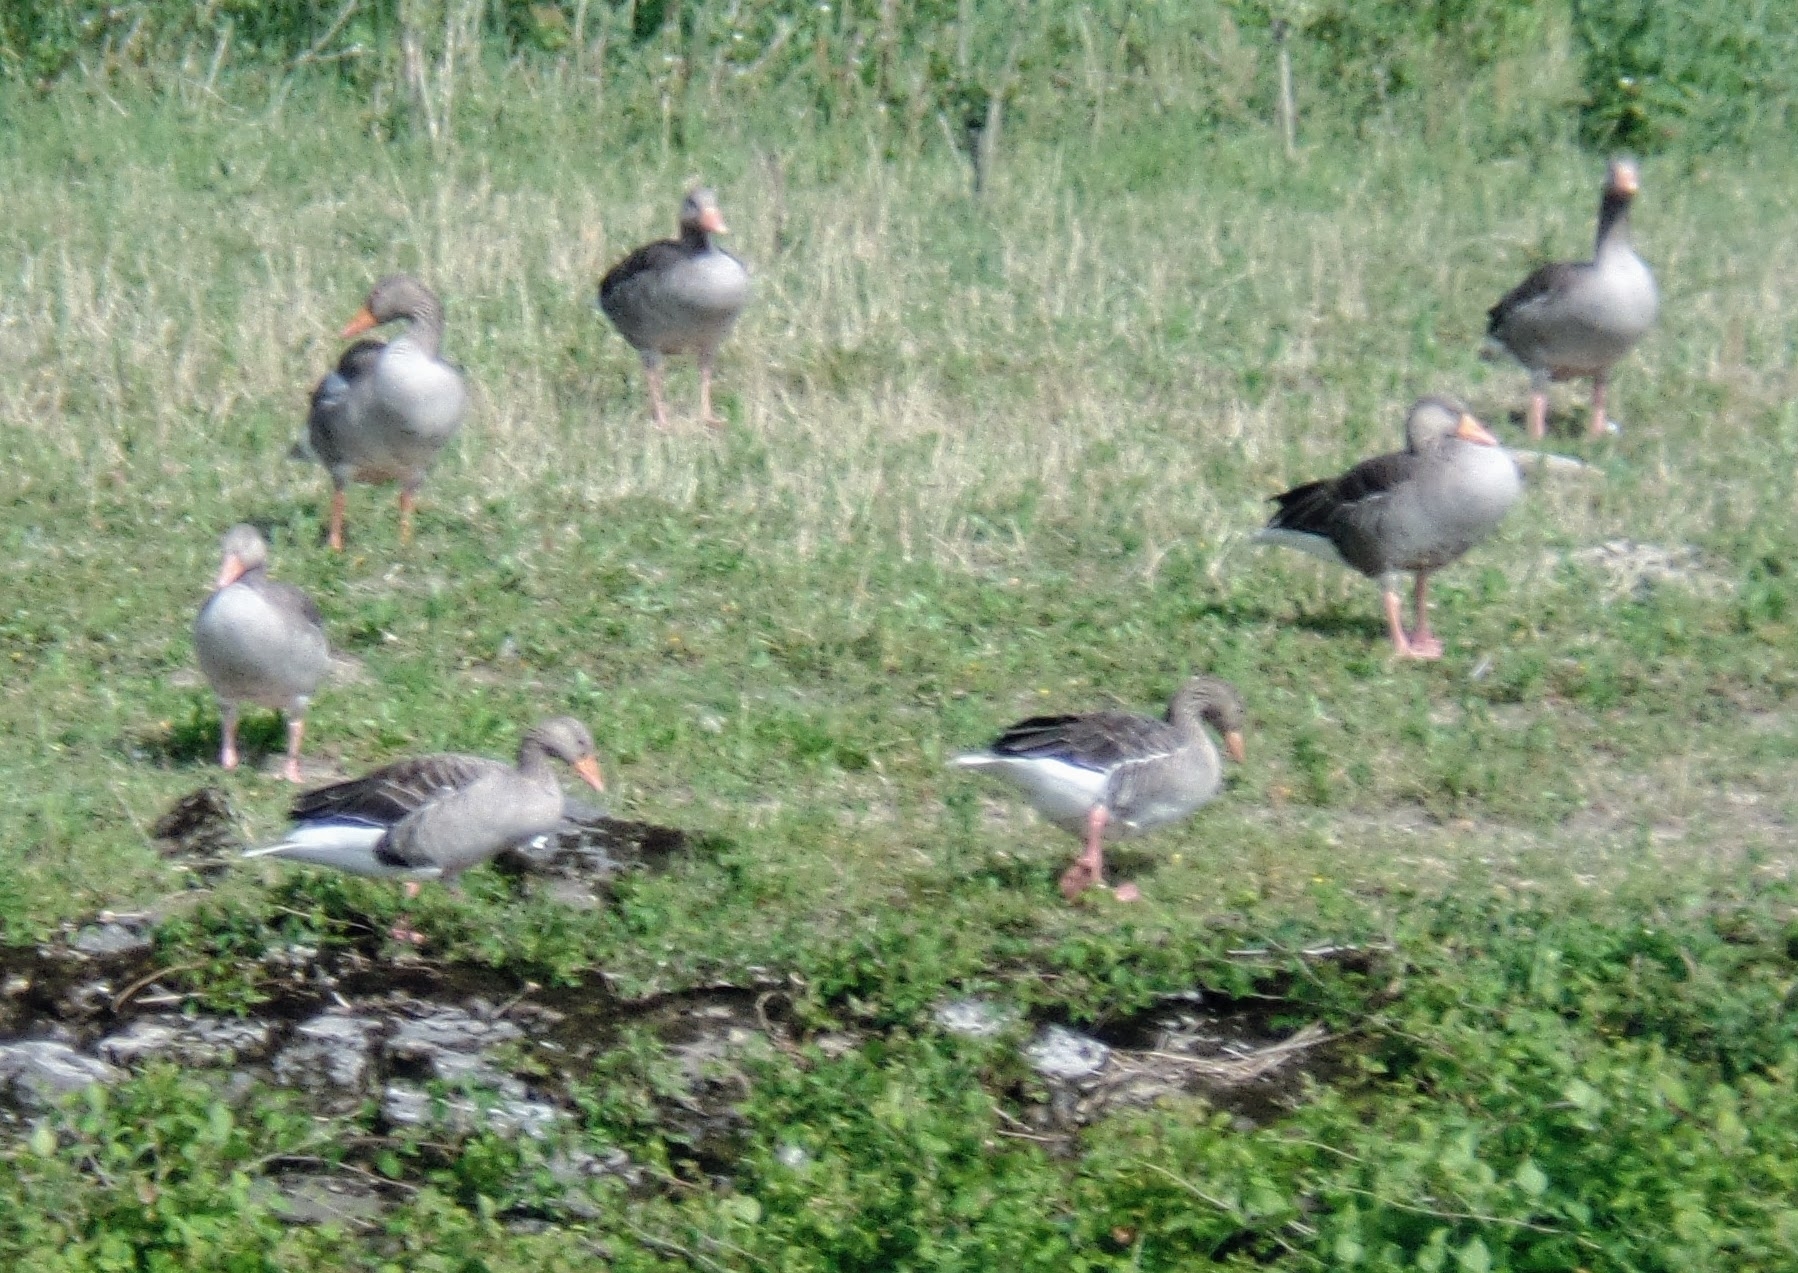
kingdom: Animalia
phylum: Chordata
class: Aves
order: Anseriformes
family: Anatidae
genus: Anser
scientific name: Anser anser
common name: Greylag goose
